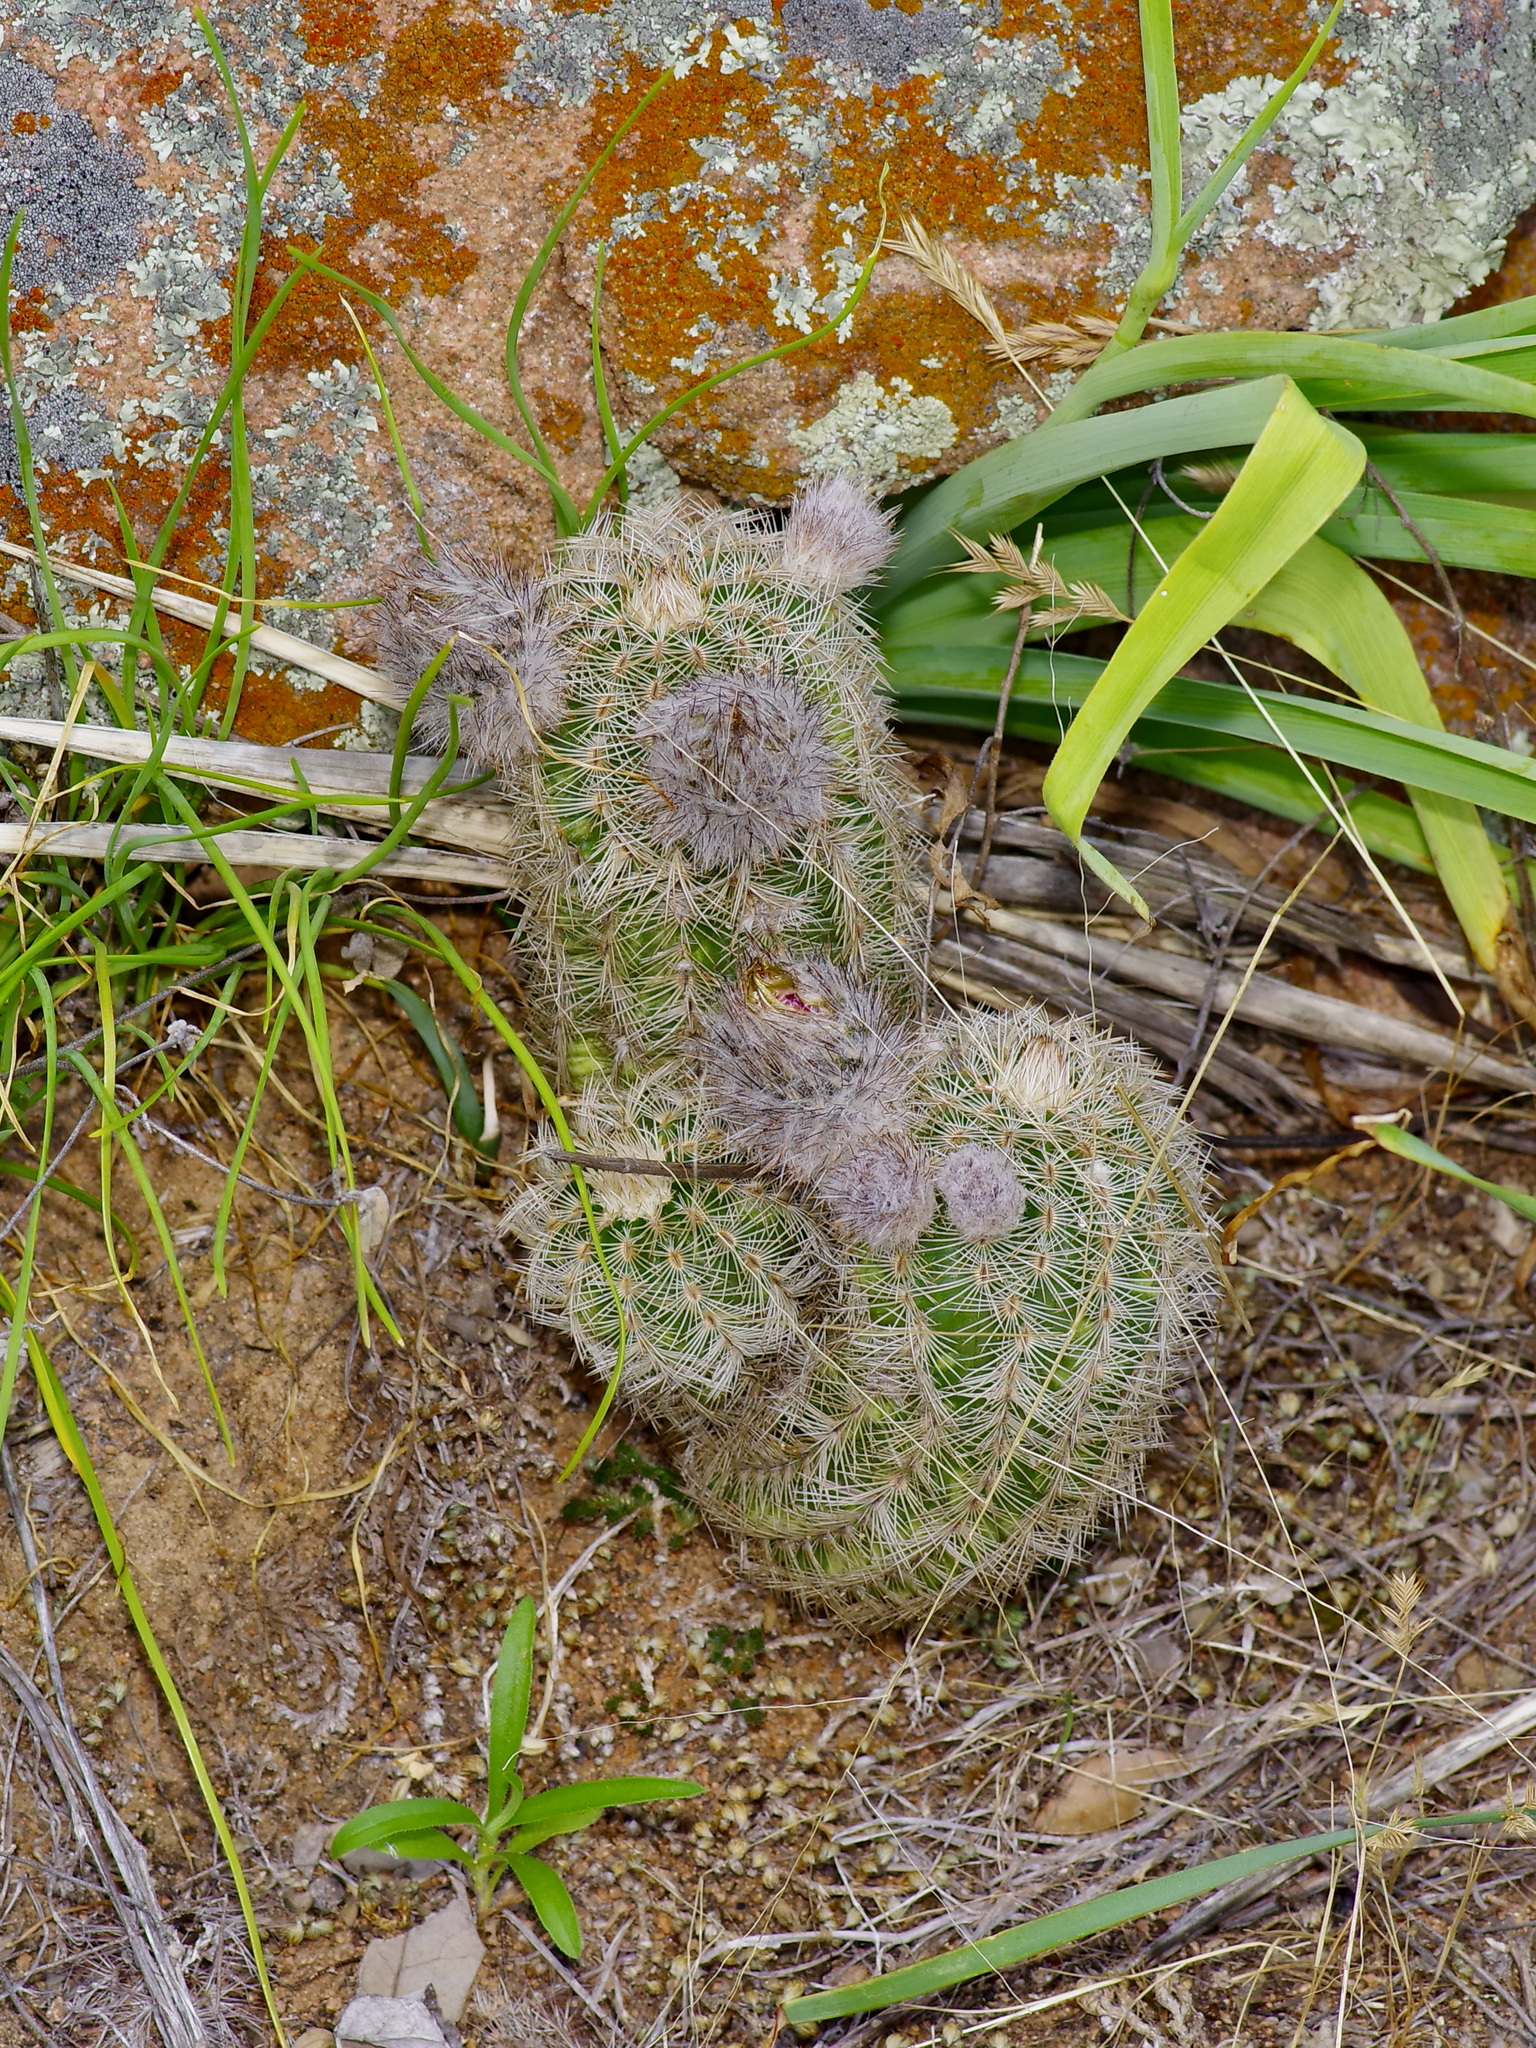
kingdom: Plantae
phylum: Tracheophyta
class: Magnoliopsida
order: Caryophyllales
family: Cactaceae
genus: Echinocereus
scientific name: Echinocereus reichenbachii
